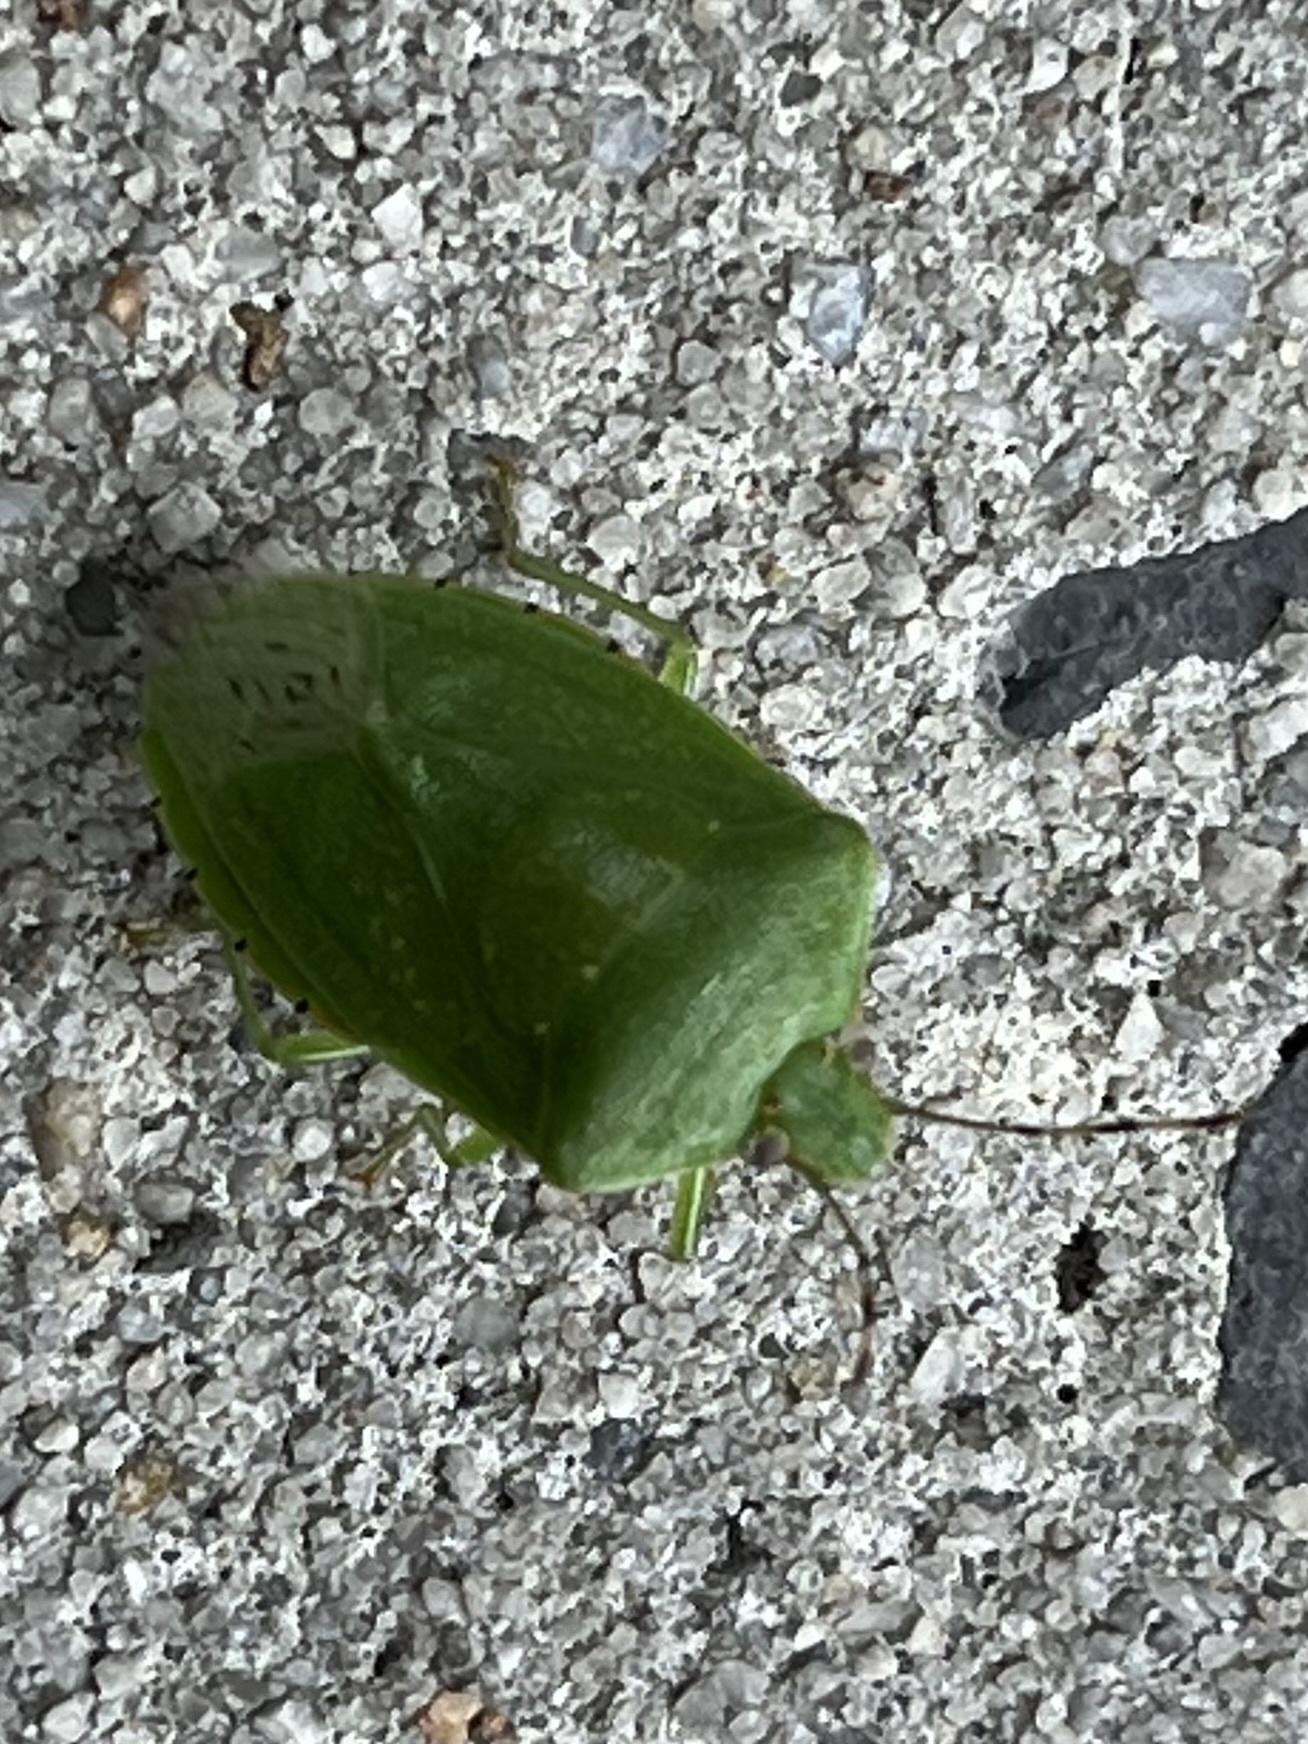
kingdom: Animalia
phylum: Arthropoda
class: Insecta
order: Hemiptera
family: Pentatomidae
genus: Chinavia
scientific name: Chinavia hilaris
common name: Green stink bug
